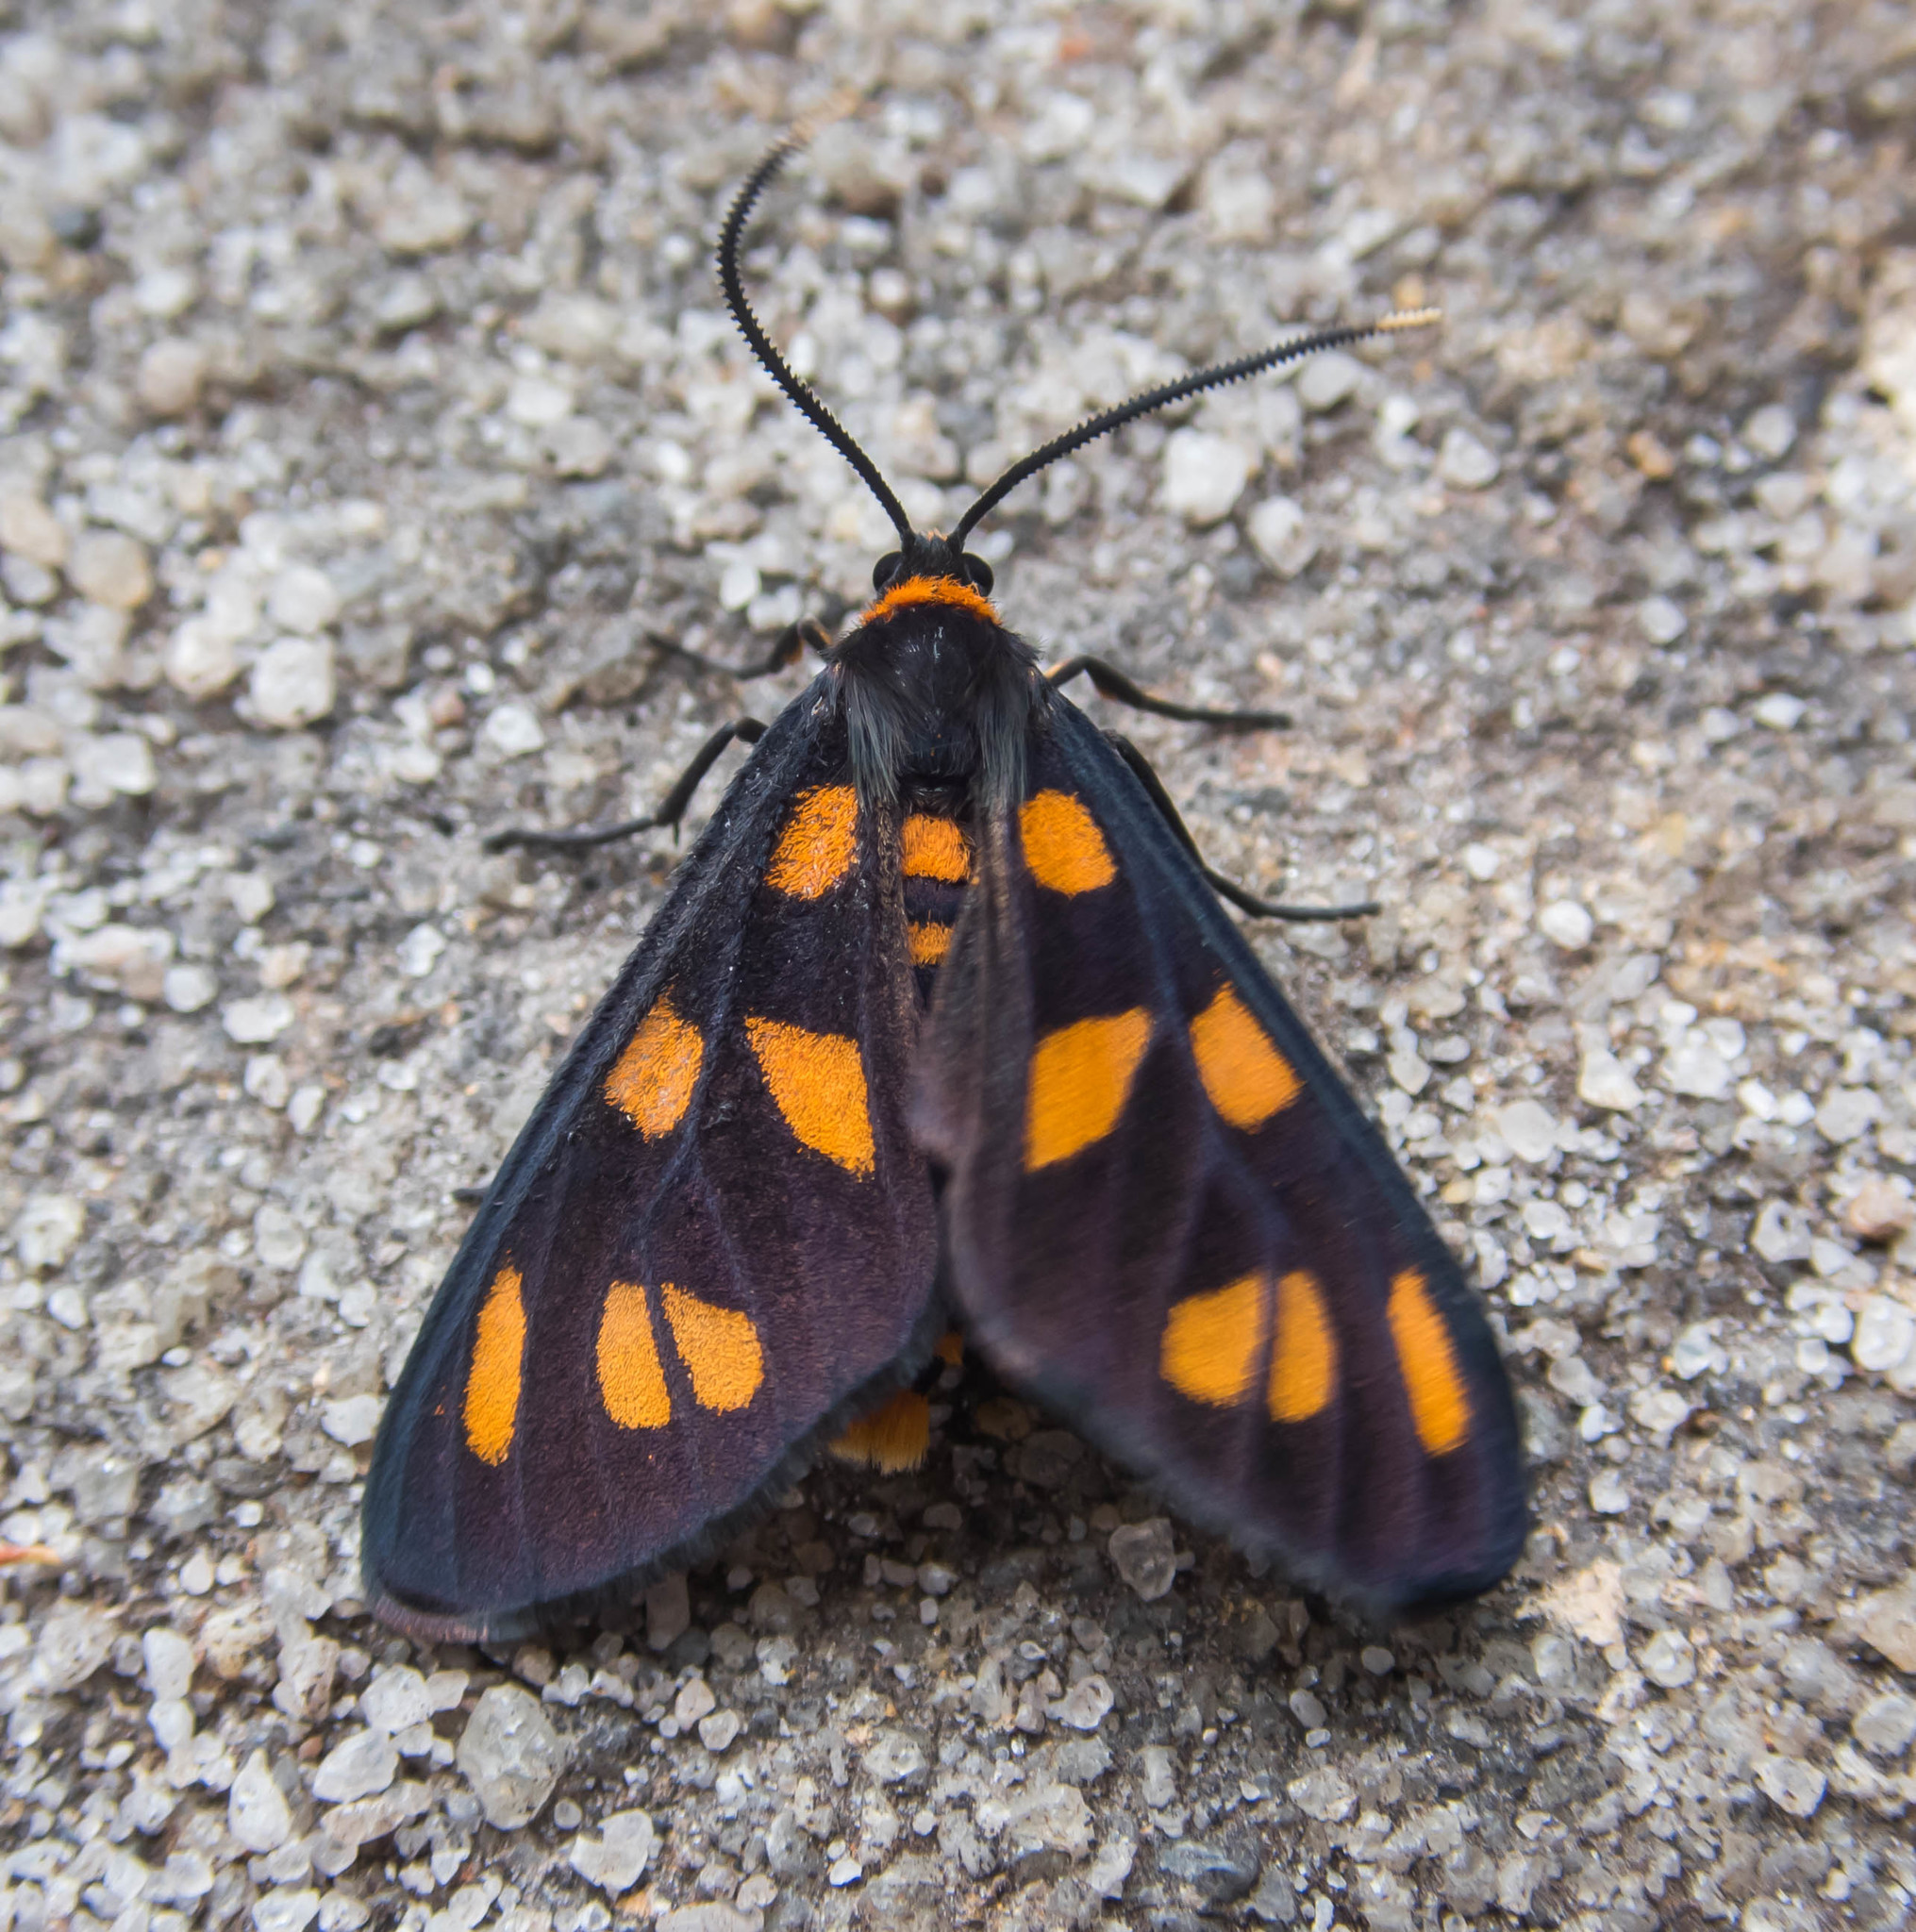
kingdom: Animalia
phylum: Arthropoda
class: Insecta
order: Lepidoptera
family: Erebidae
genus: Asura
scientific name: Asura cervicalis
